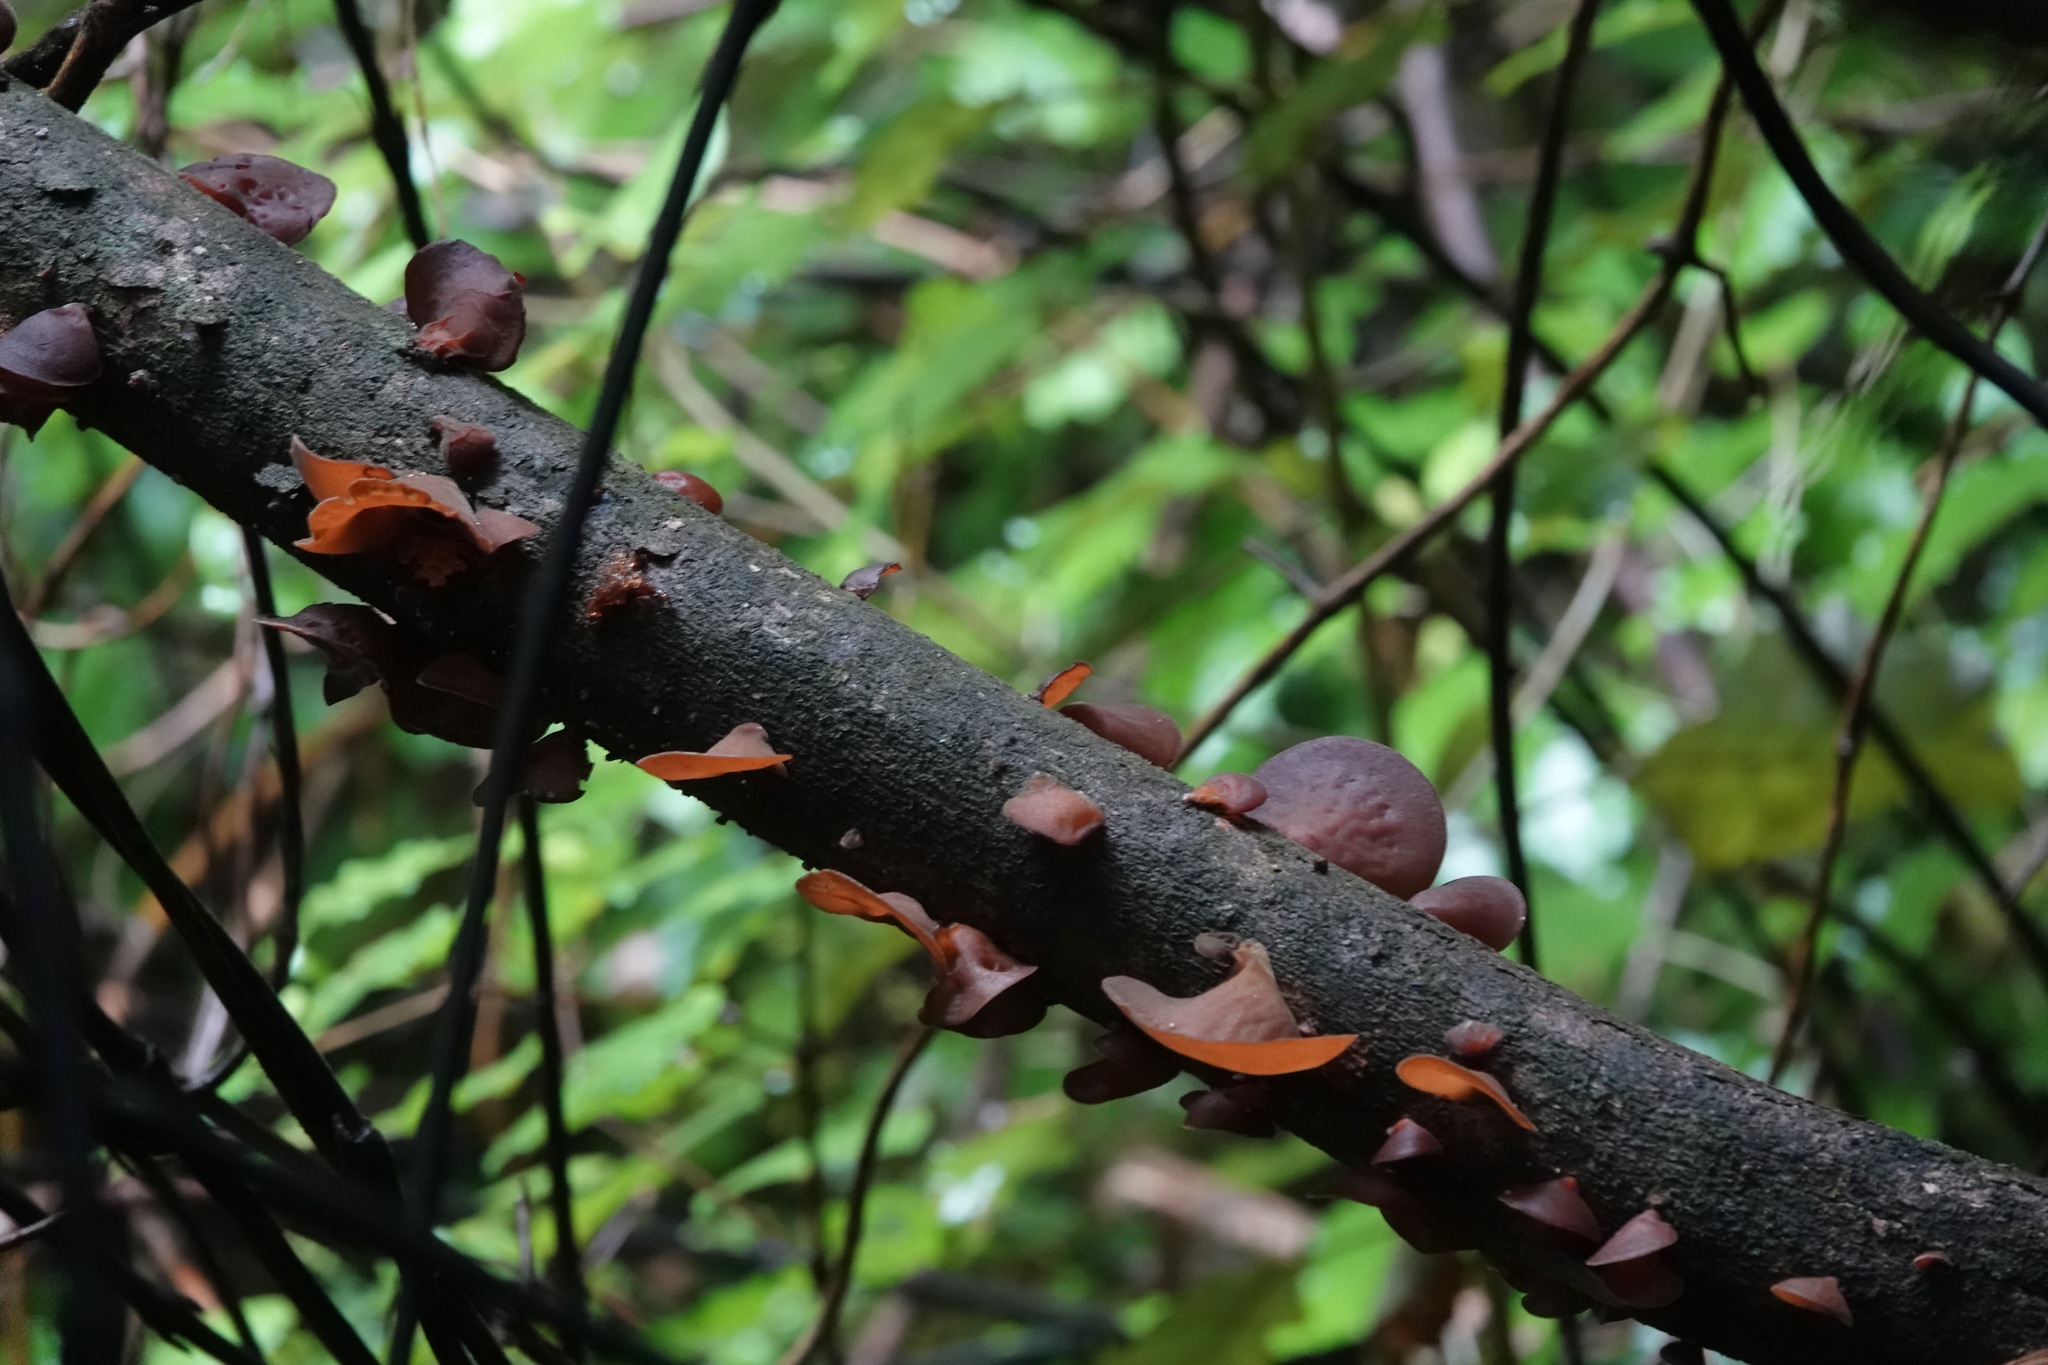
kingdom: Fungi
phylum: Basidiomycota
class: Agaricomycetes
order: Auriculariales
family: Auriculariaceae
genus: Auricularia
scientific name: Auricularia cornea
